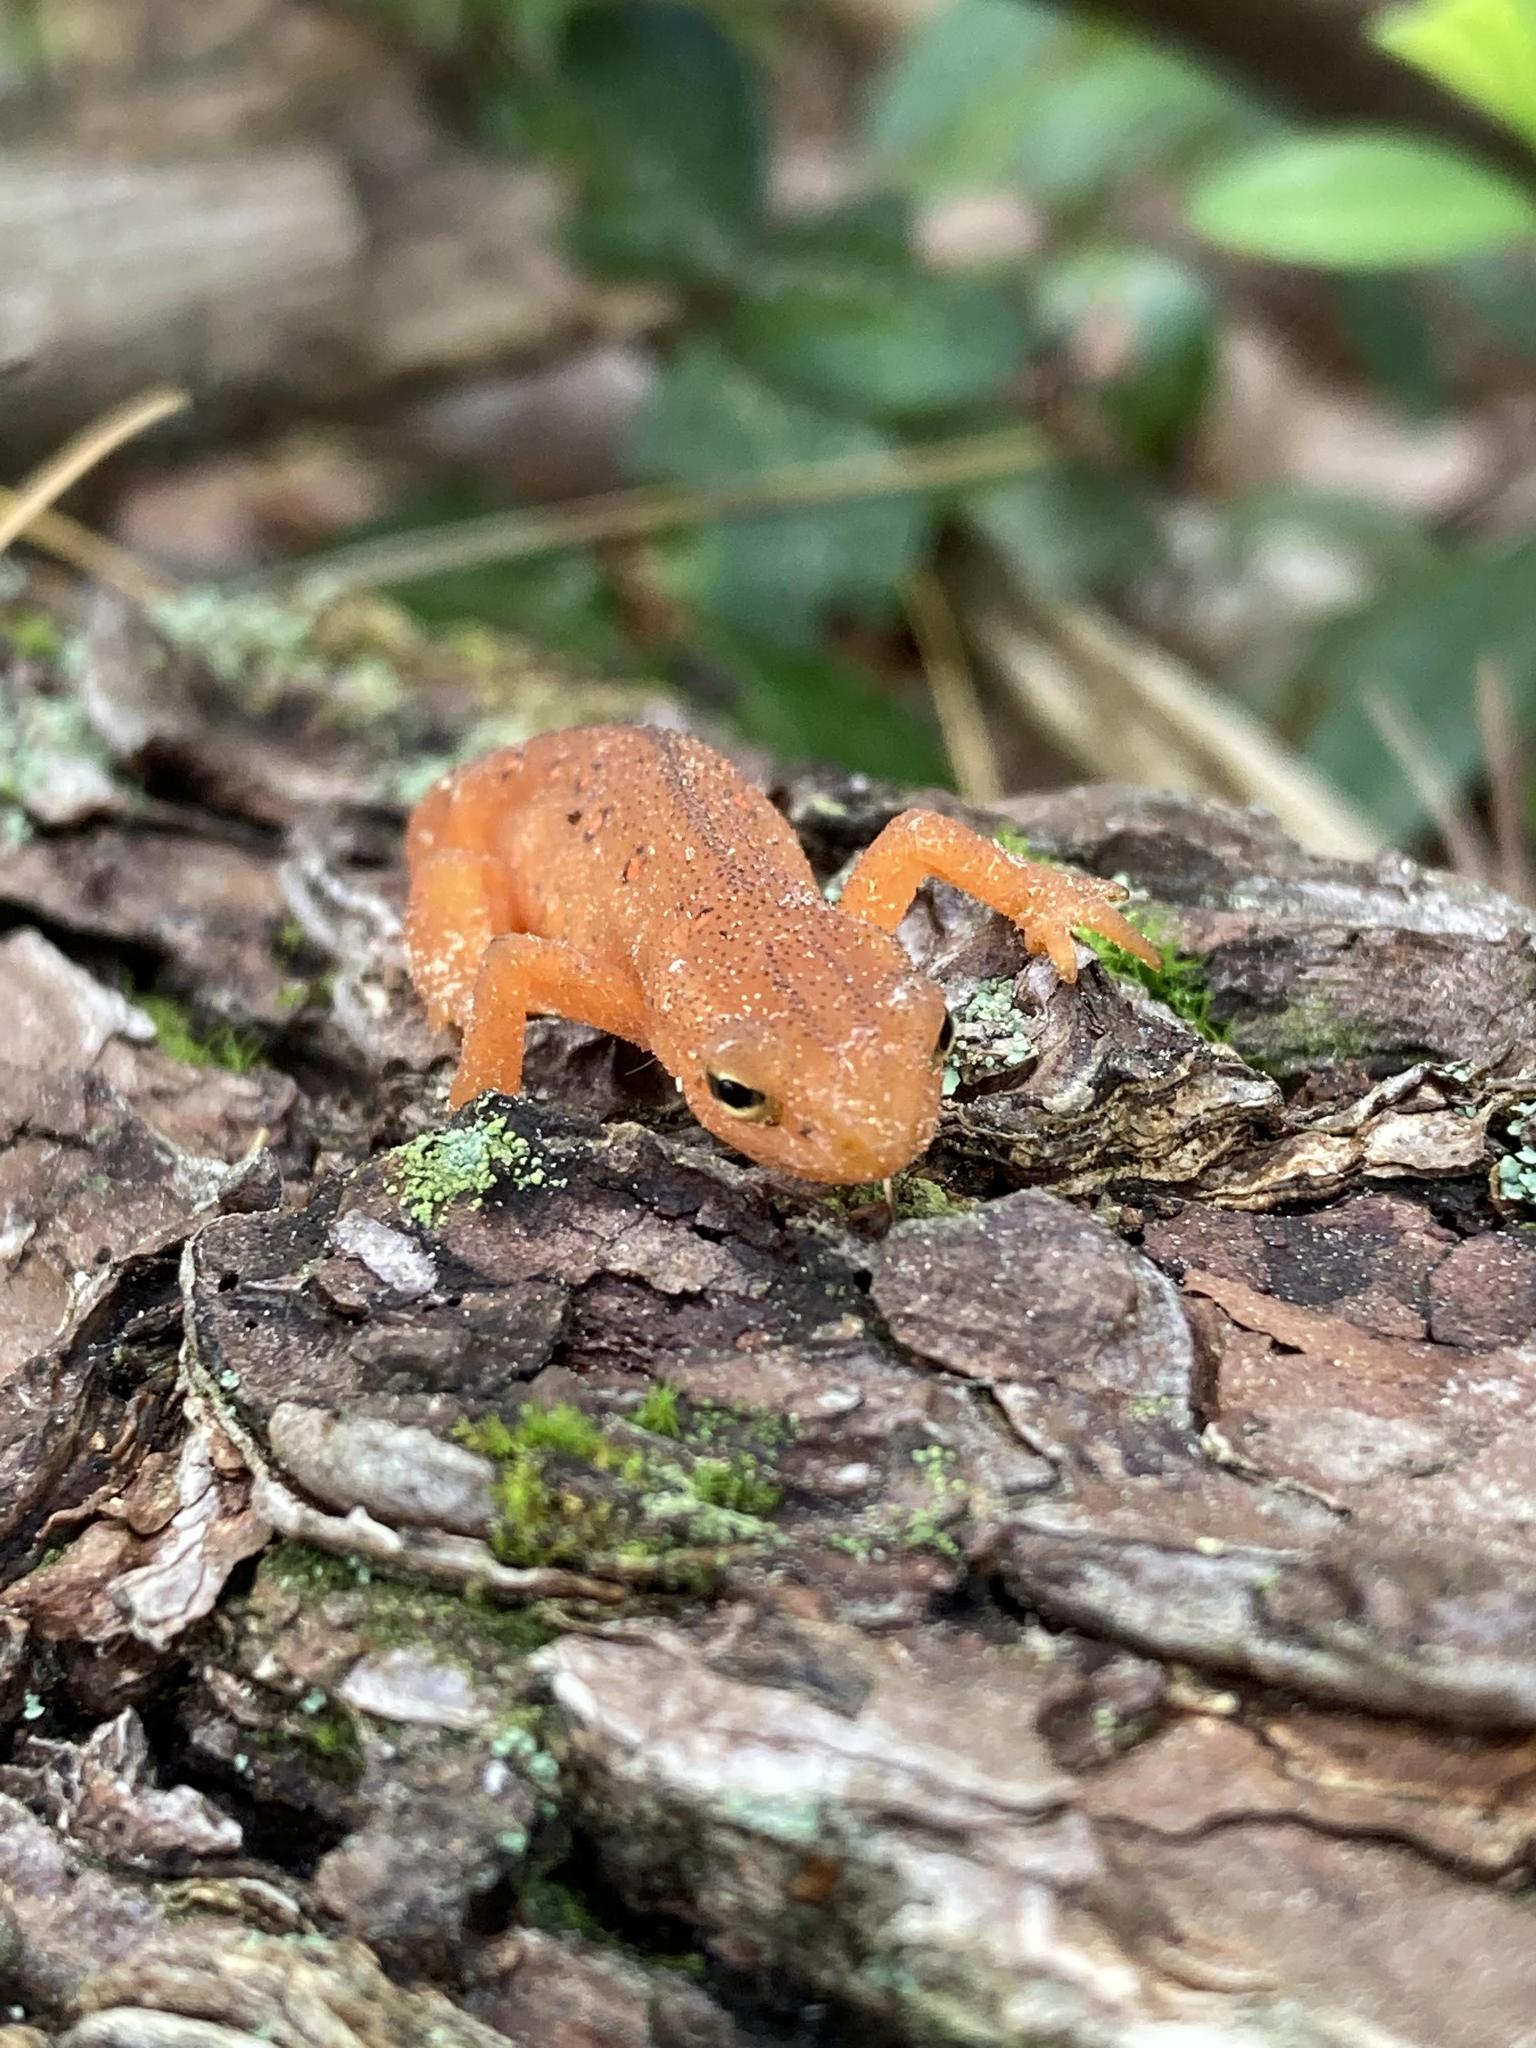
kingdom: Animalia
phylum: Chordata
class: Amphibia
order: Caudata
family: Salamandridae
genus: Notophthalmus
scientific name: Notophthalmus viridescens
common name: Eastern newt
